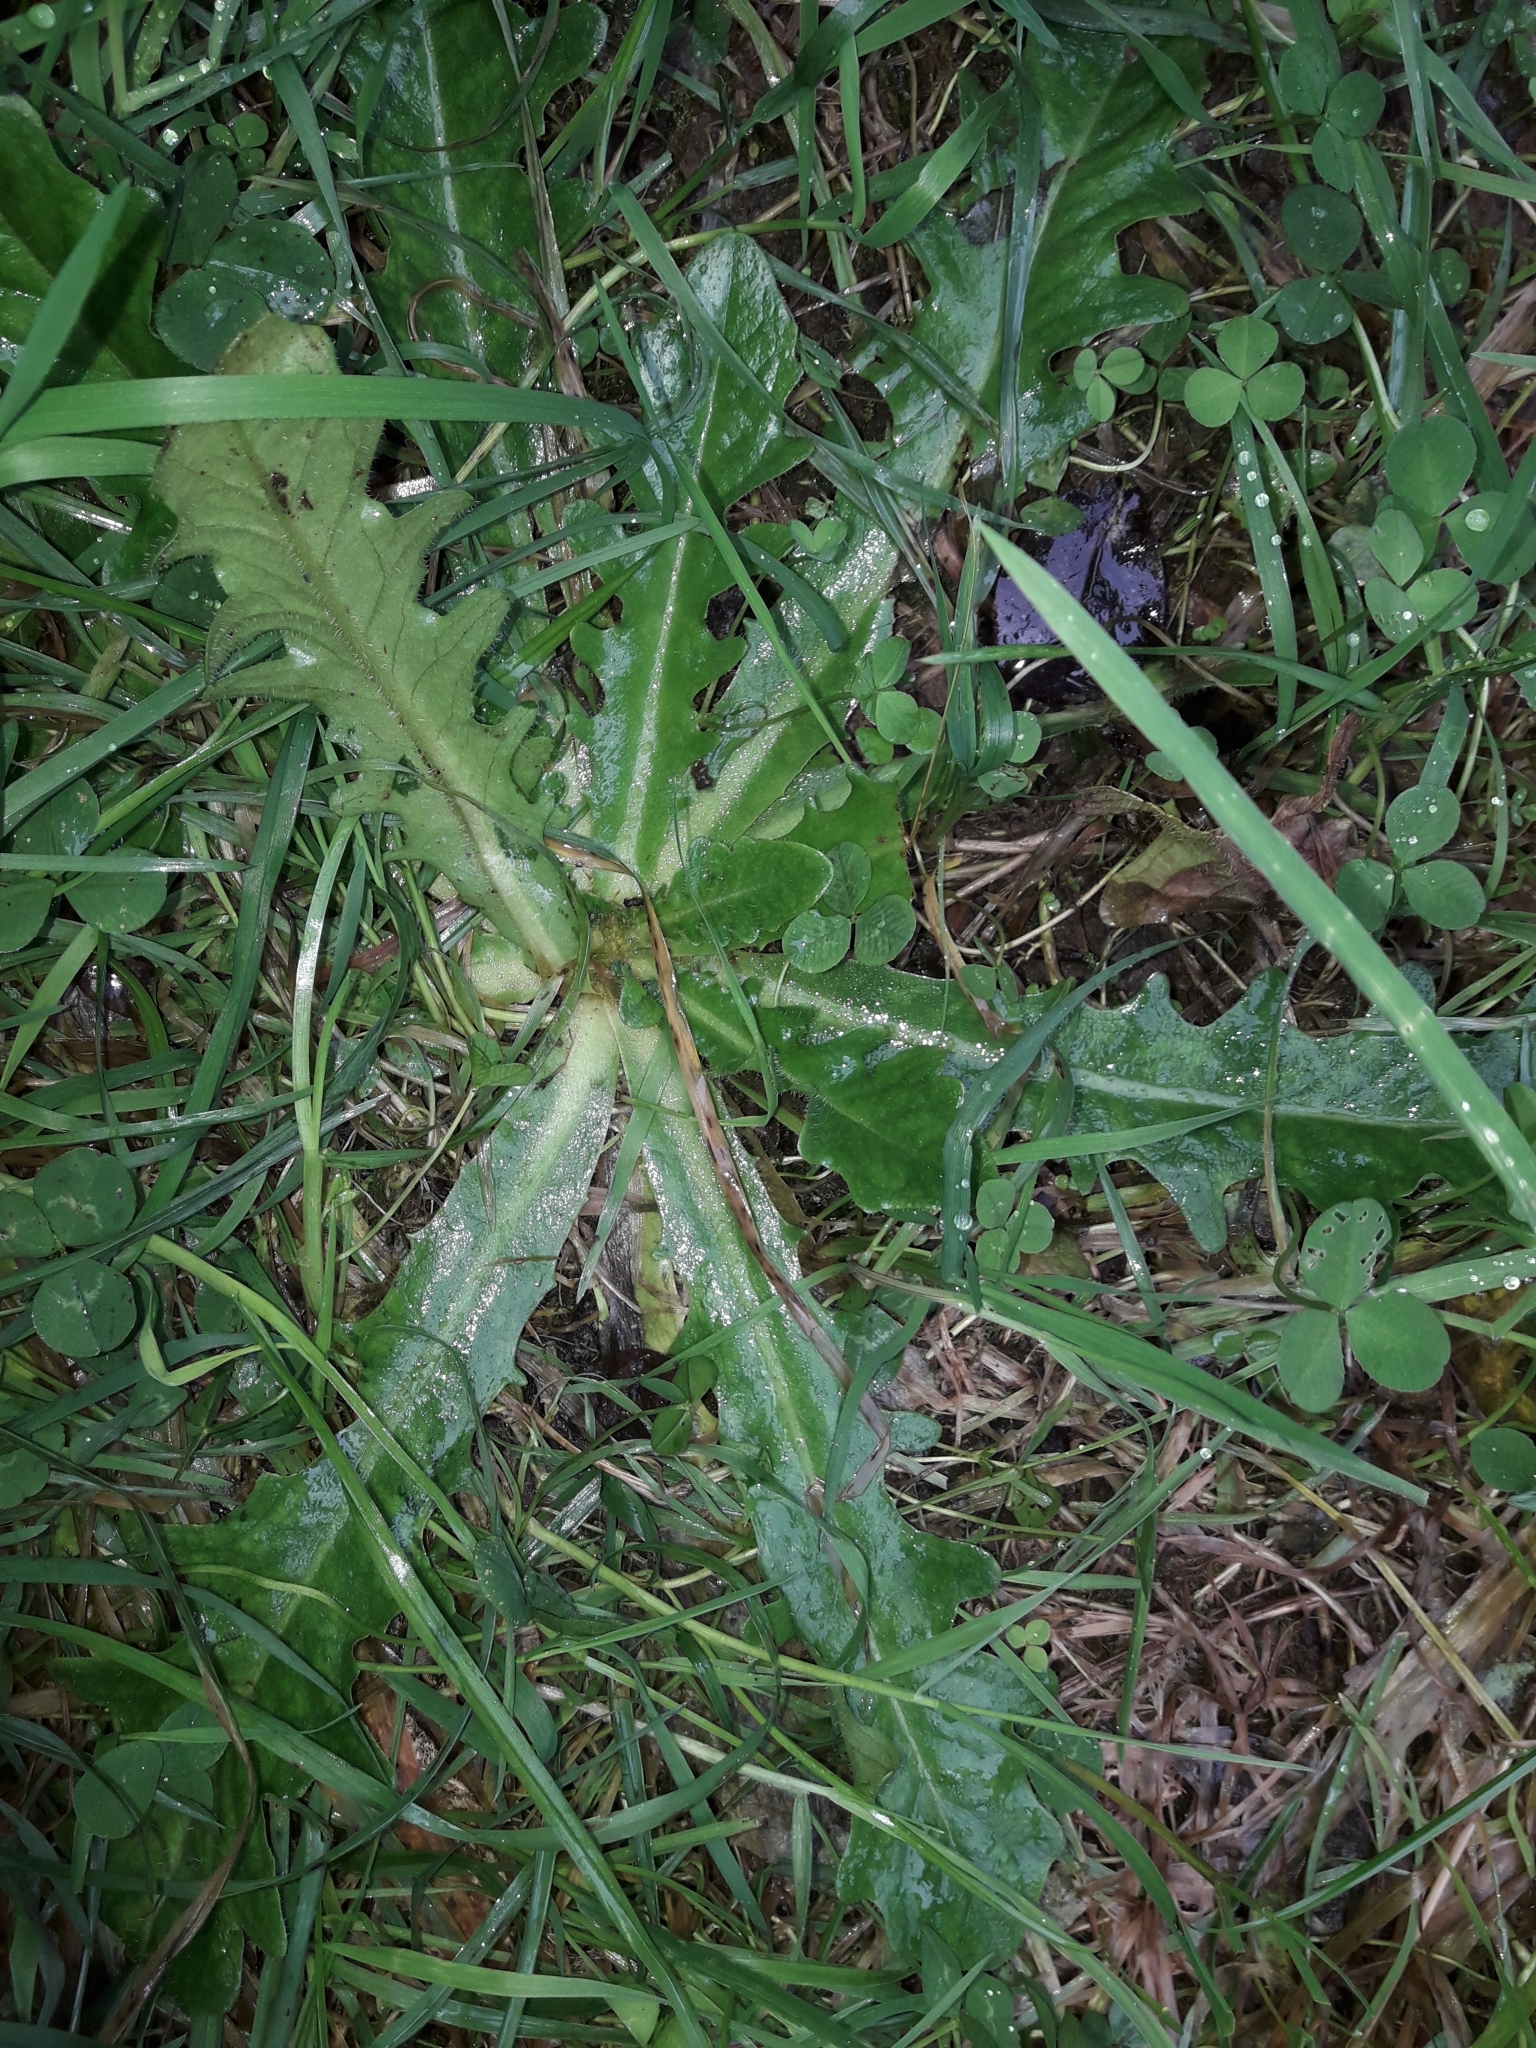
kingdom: Plantae
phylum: Tracheophyta
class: Magnoliopsida
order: Asterales
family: Asteraceae
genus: Hypochaeris
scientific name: Hypochaeris radicata
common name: Flatweed
